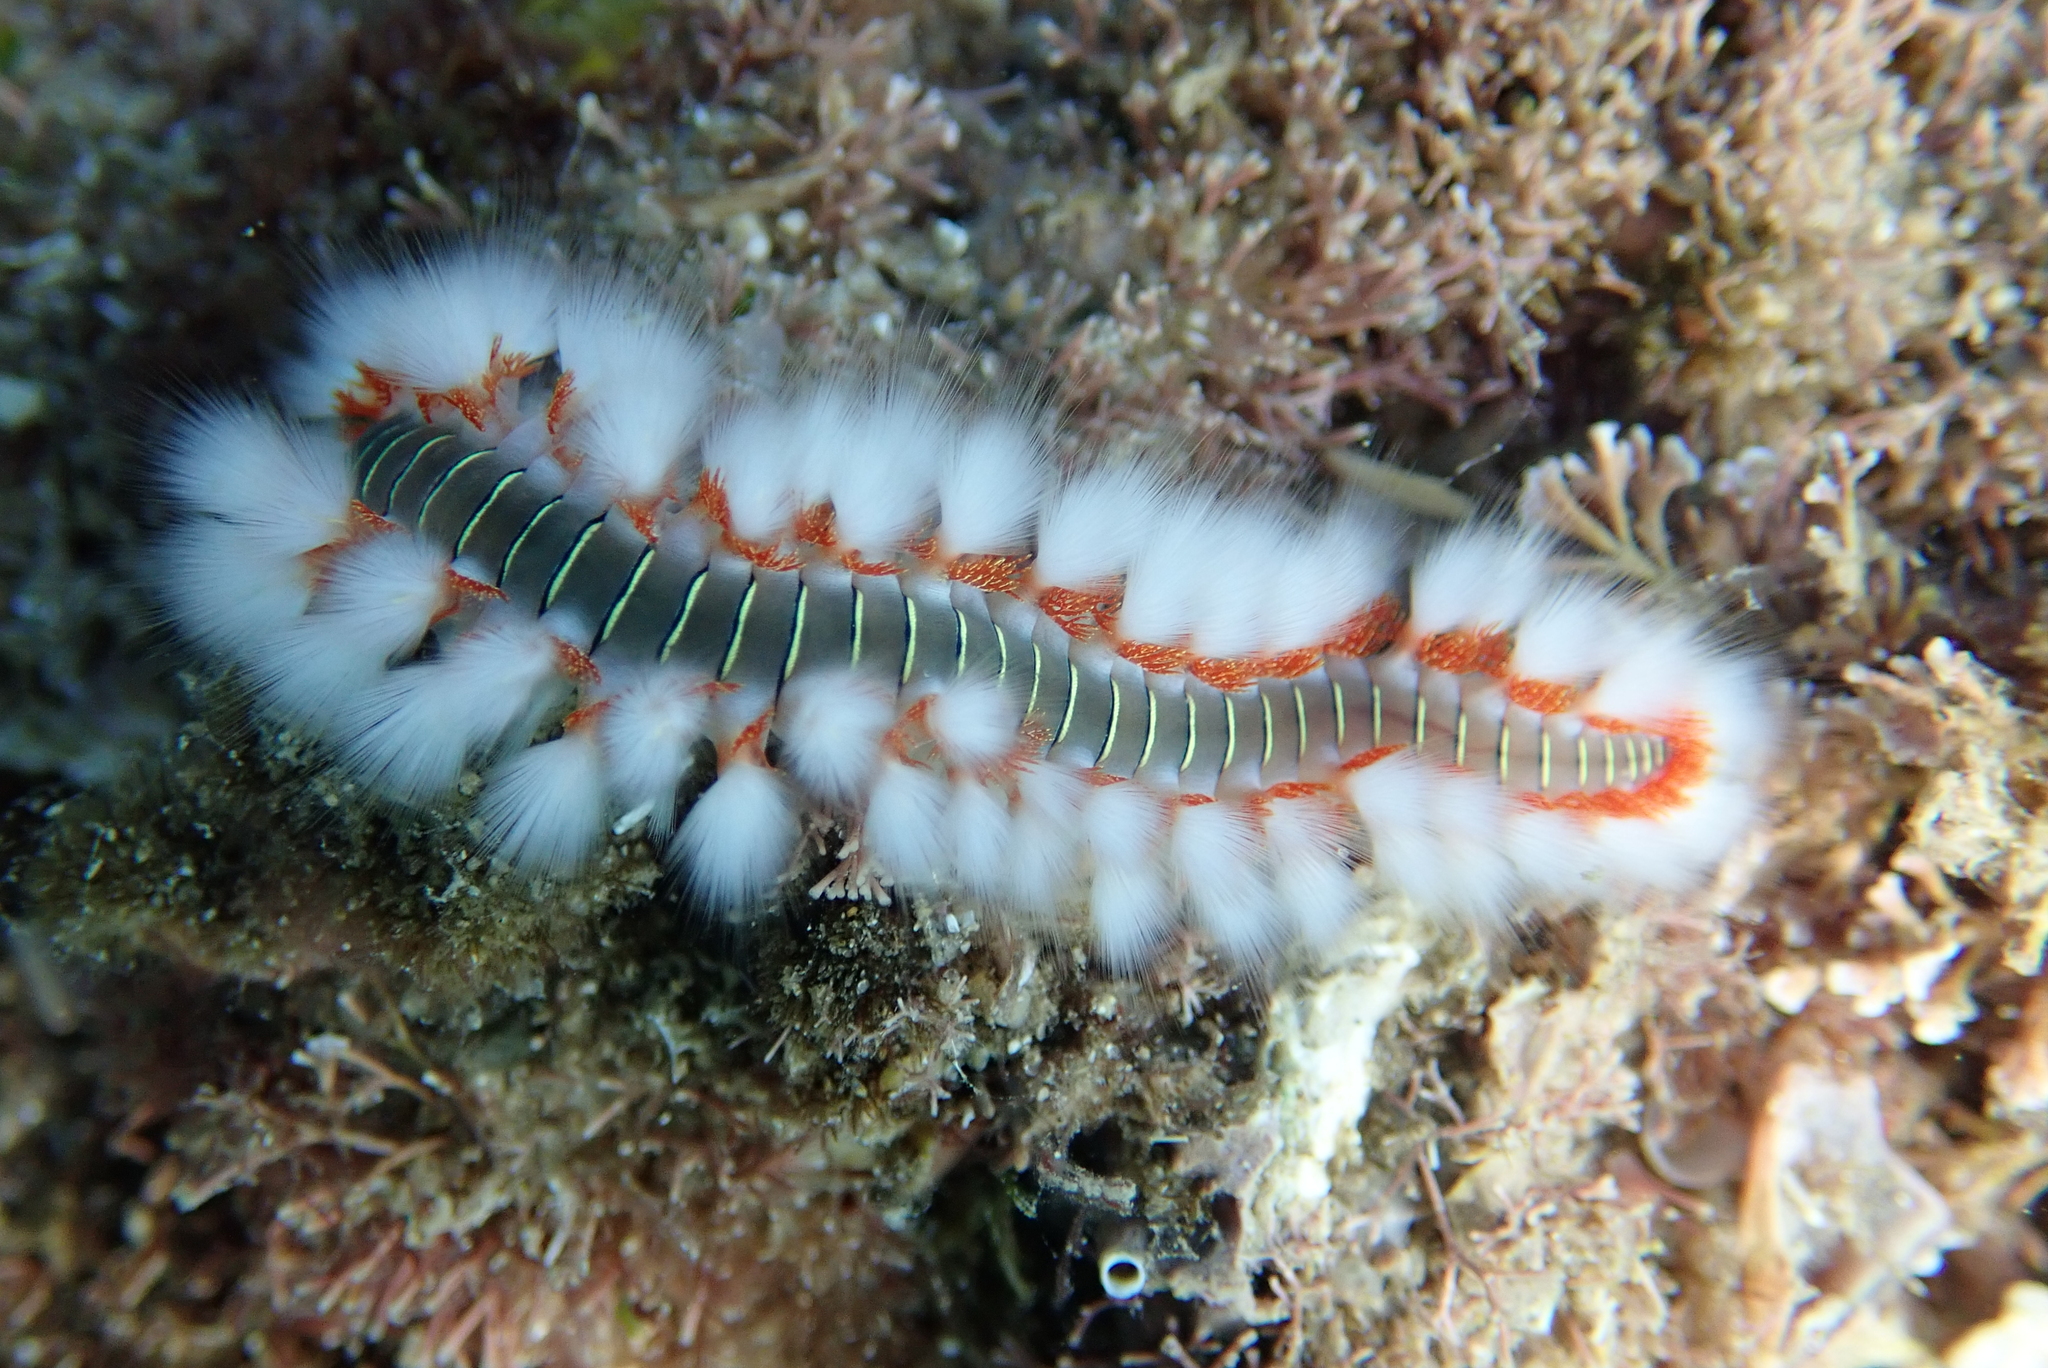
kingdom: Animalia
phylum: Annelida
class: Polychaeta
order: Amphinomida
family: Amphinomidae
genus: Hermodice
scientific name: Hermodice carunculata
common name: Bearded fireworm
